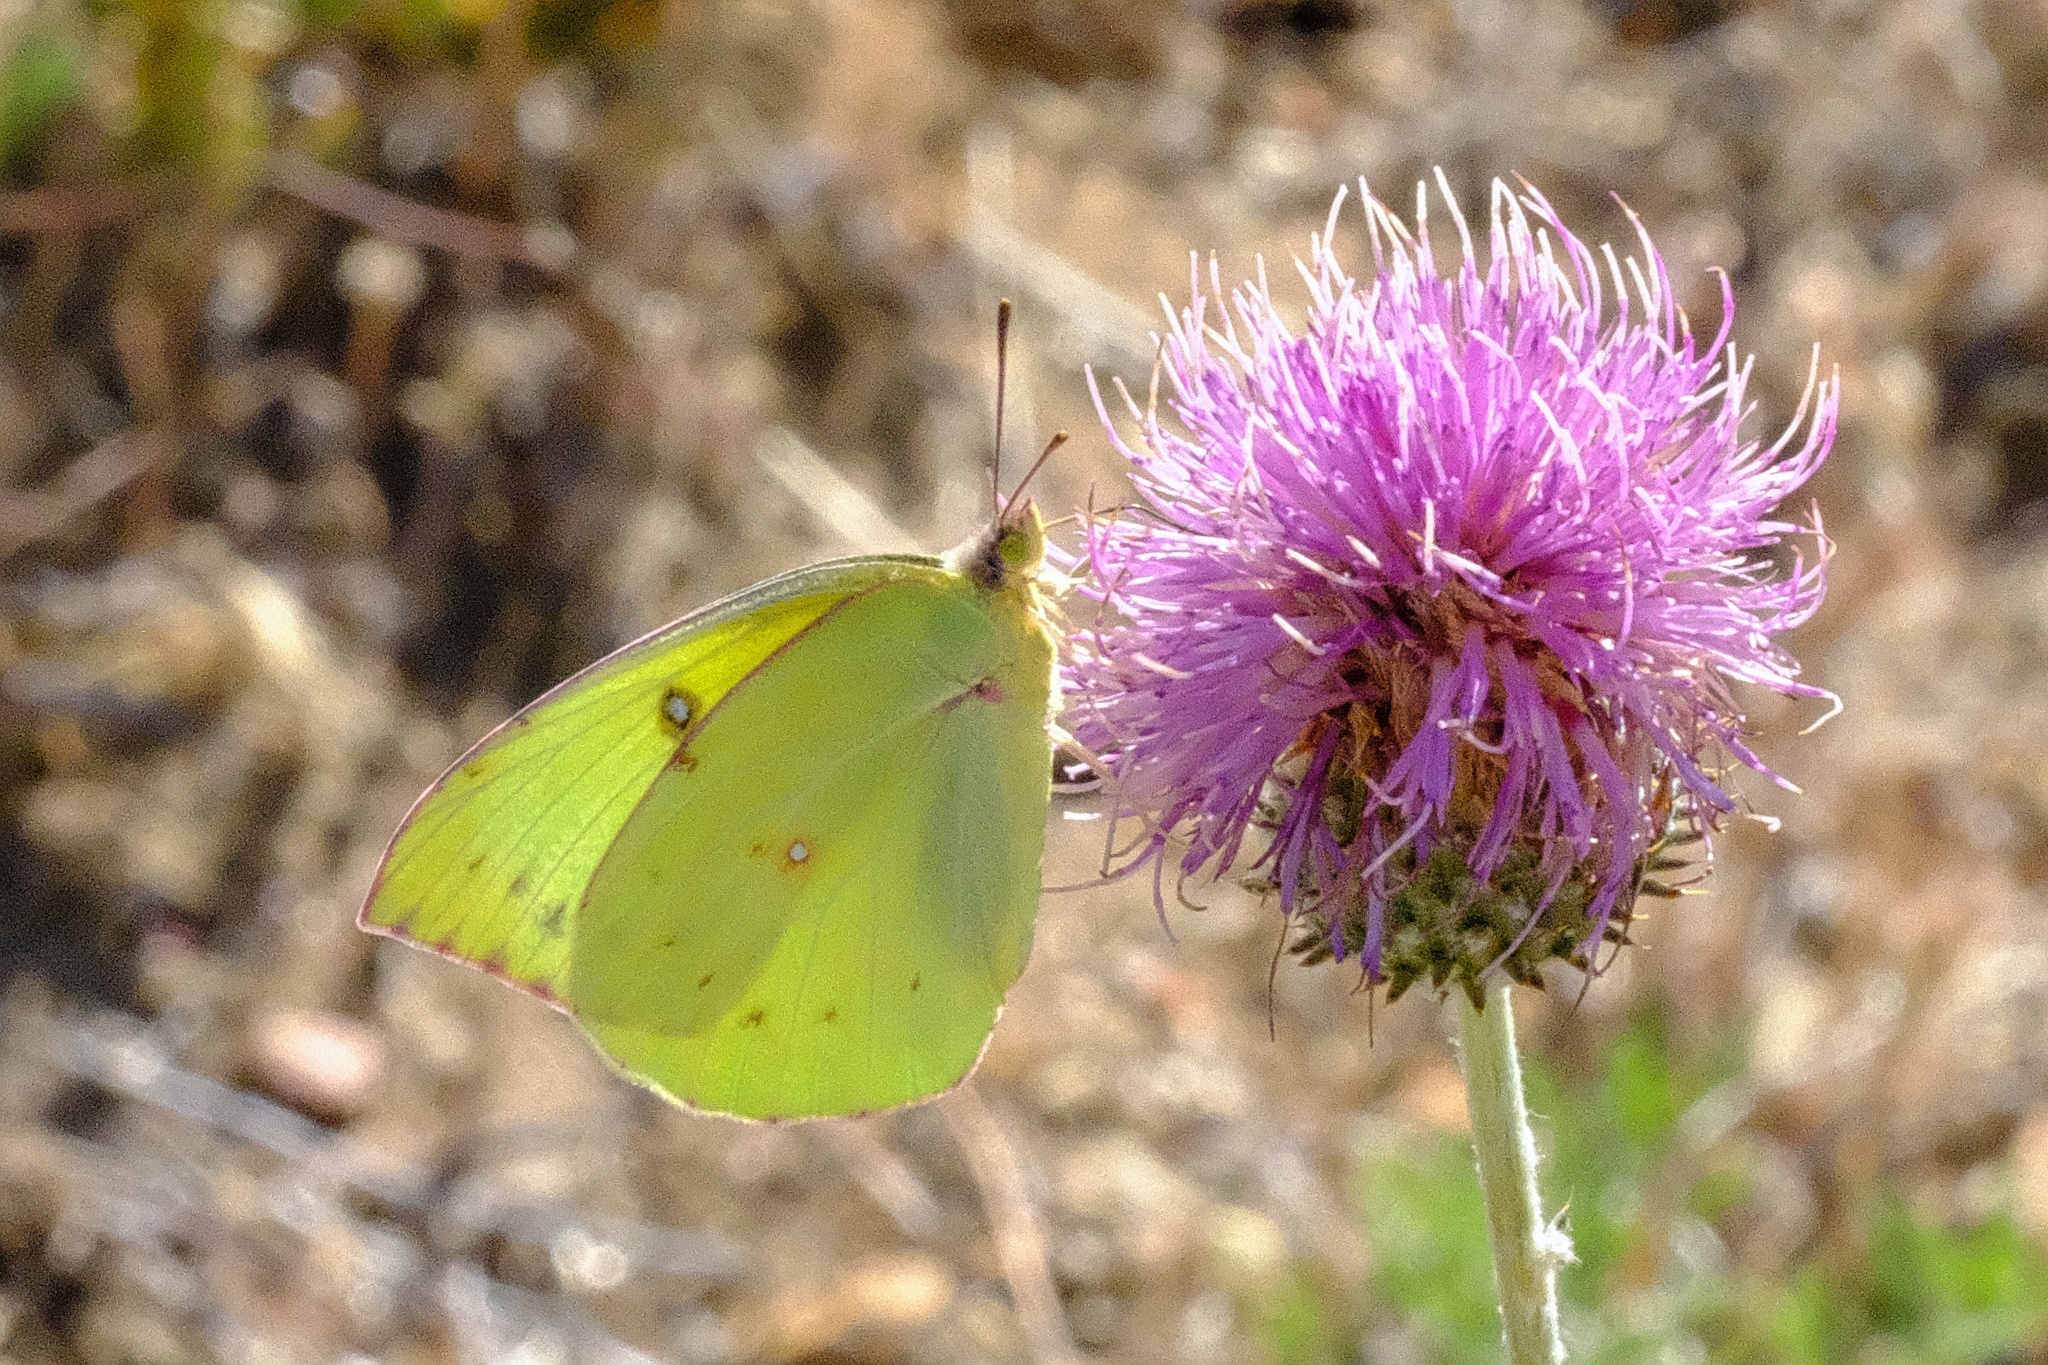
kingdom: Animalia
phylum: Arthropoda
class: Insecta
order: Lepidoptera
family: Pieridae
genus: Zerene
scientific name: Zerene eurydice
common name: California dogface
